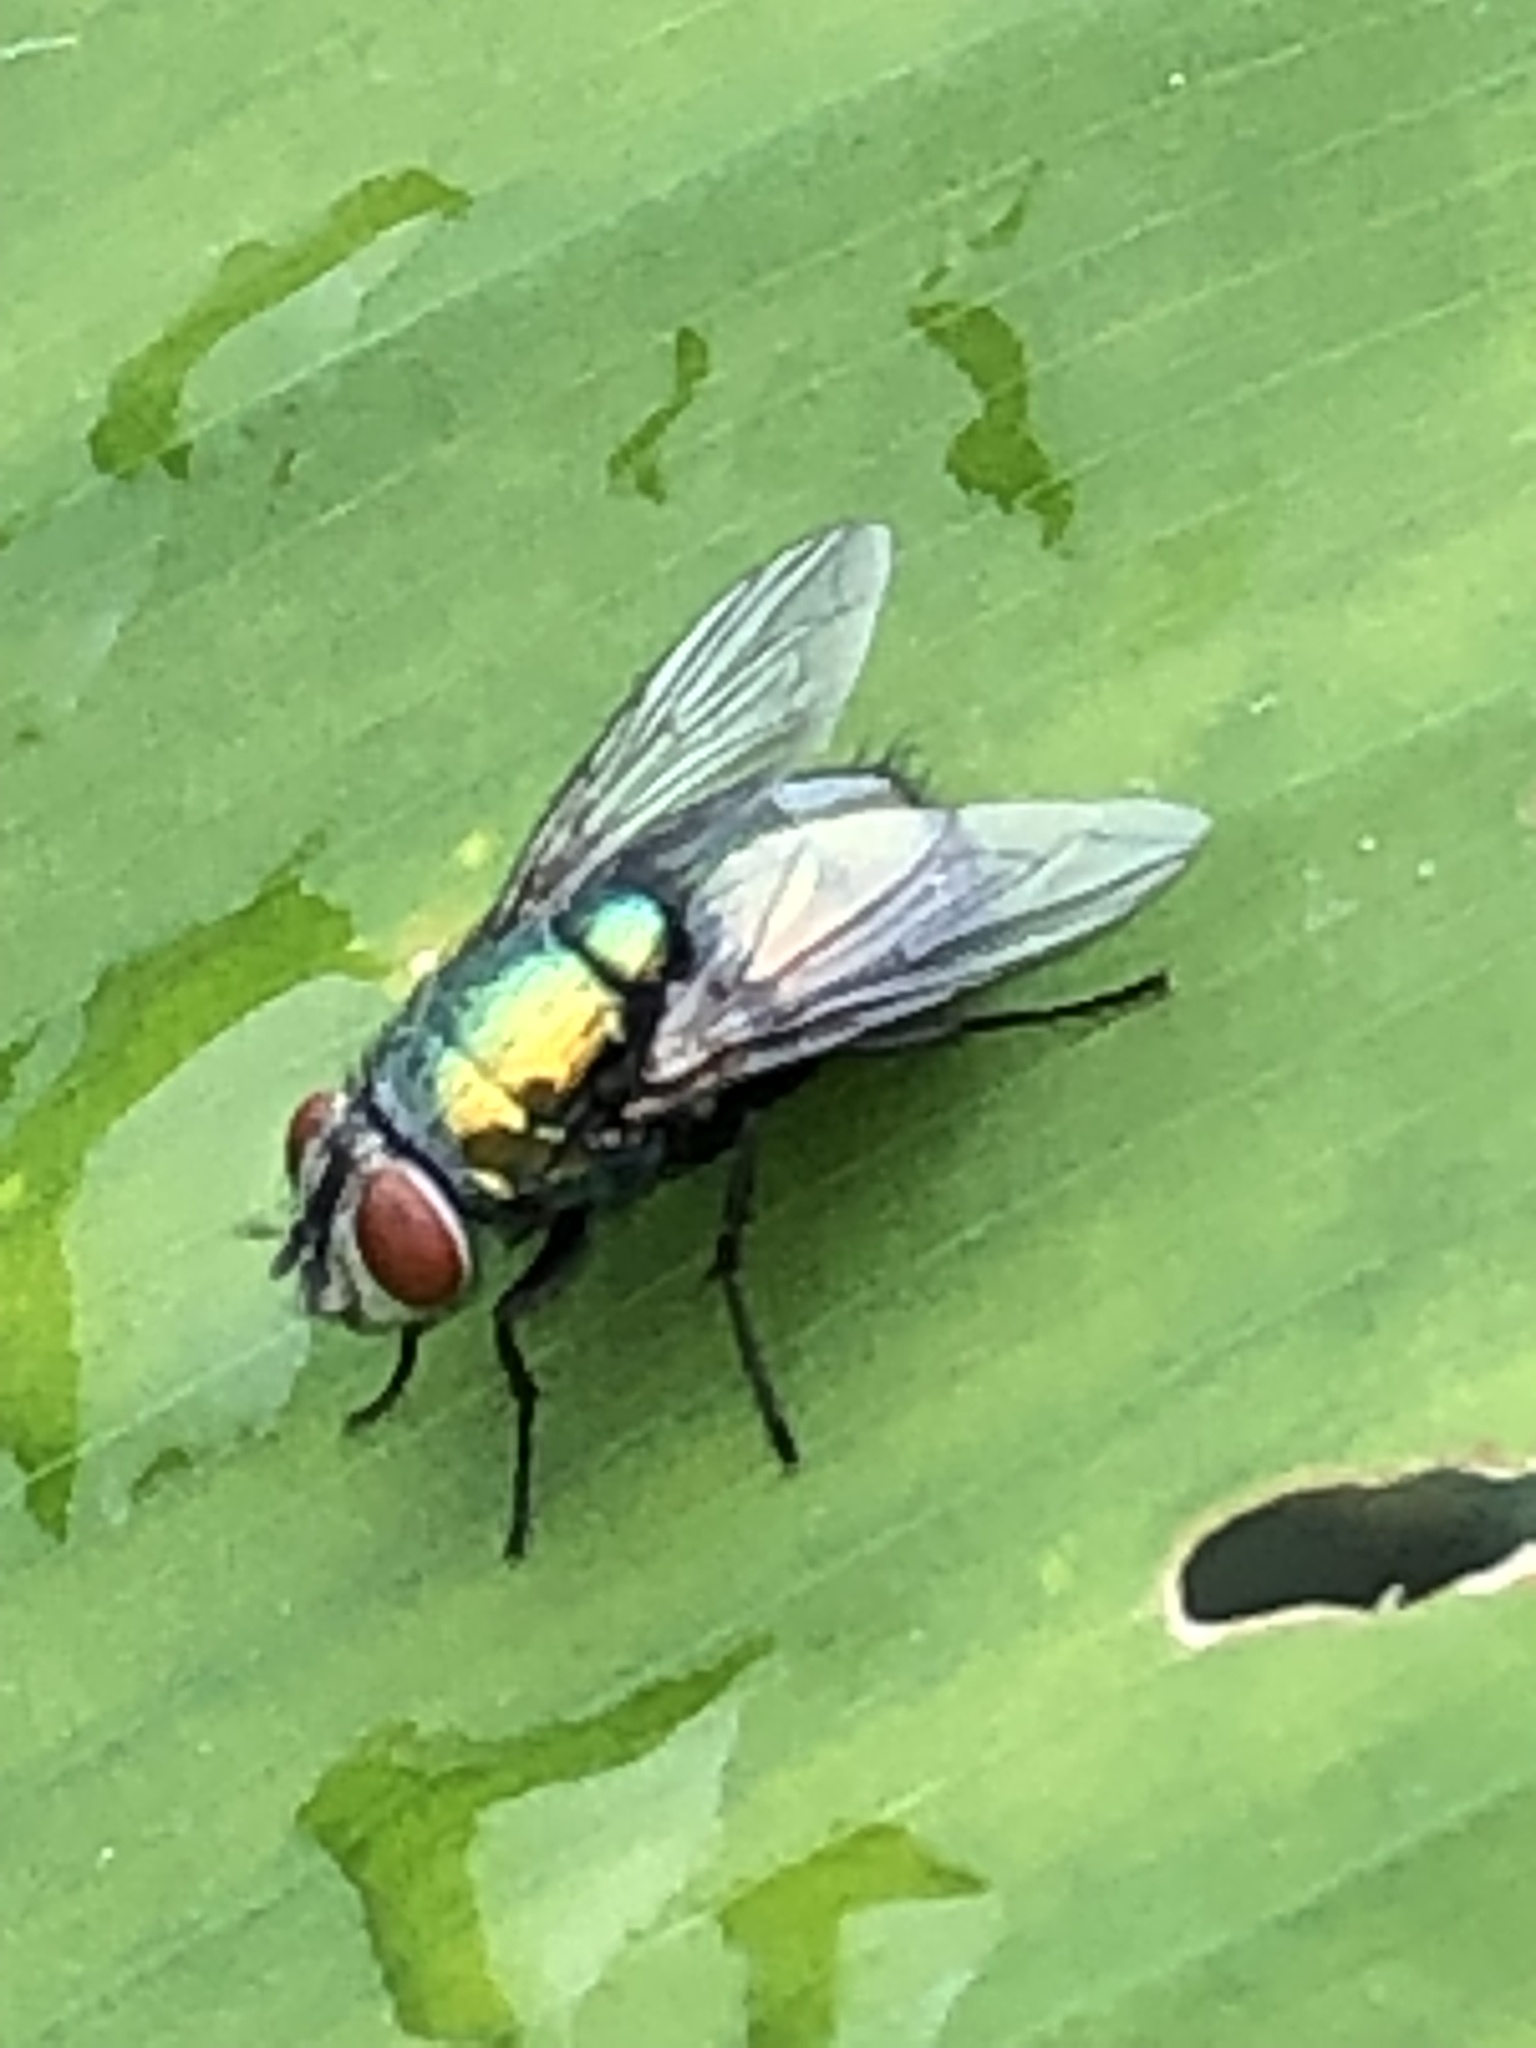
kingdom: Animalia
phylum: Arthropoda
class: Insecta
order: Diptera
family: Calliphoridae
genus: Lucilia
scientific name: Lucilia sericata
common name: Blow fly
